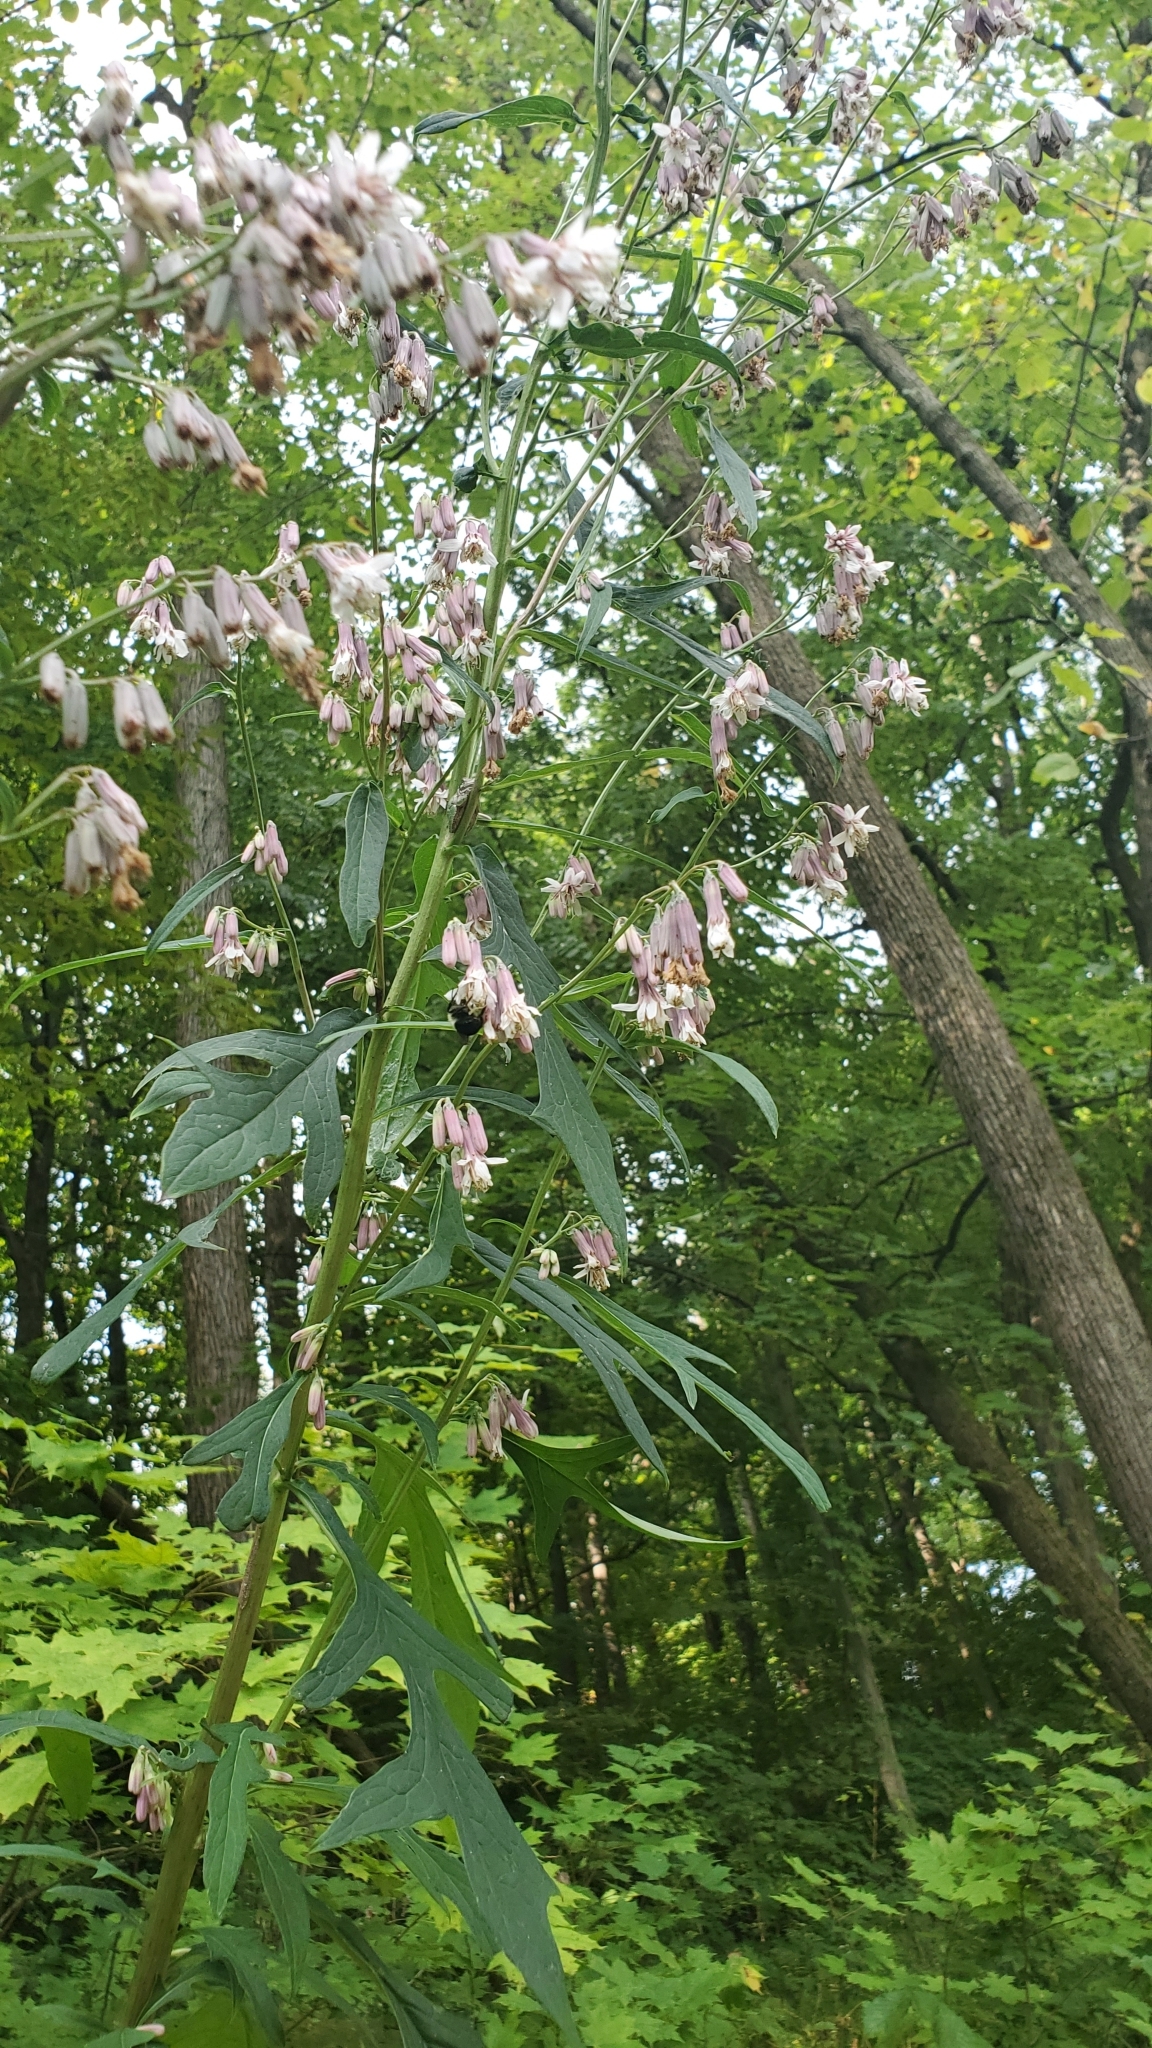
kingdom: Plantae
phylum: Tracheophyta
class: Magnoliopsida
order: Asterales
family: Asteraceae
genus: Nabalus
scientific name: Nabalus albus
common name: White rattlesnakeroot
